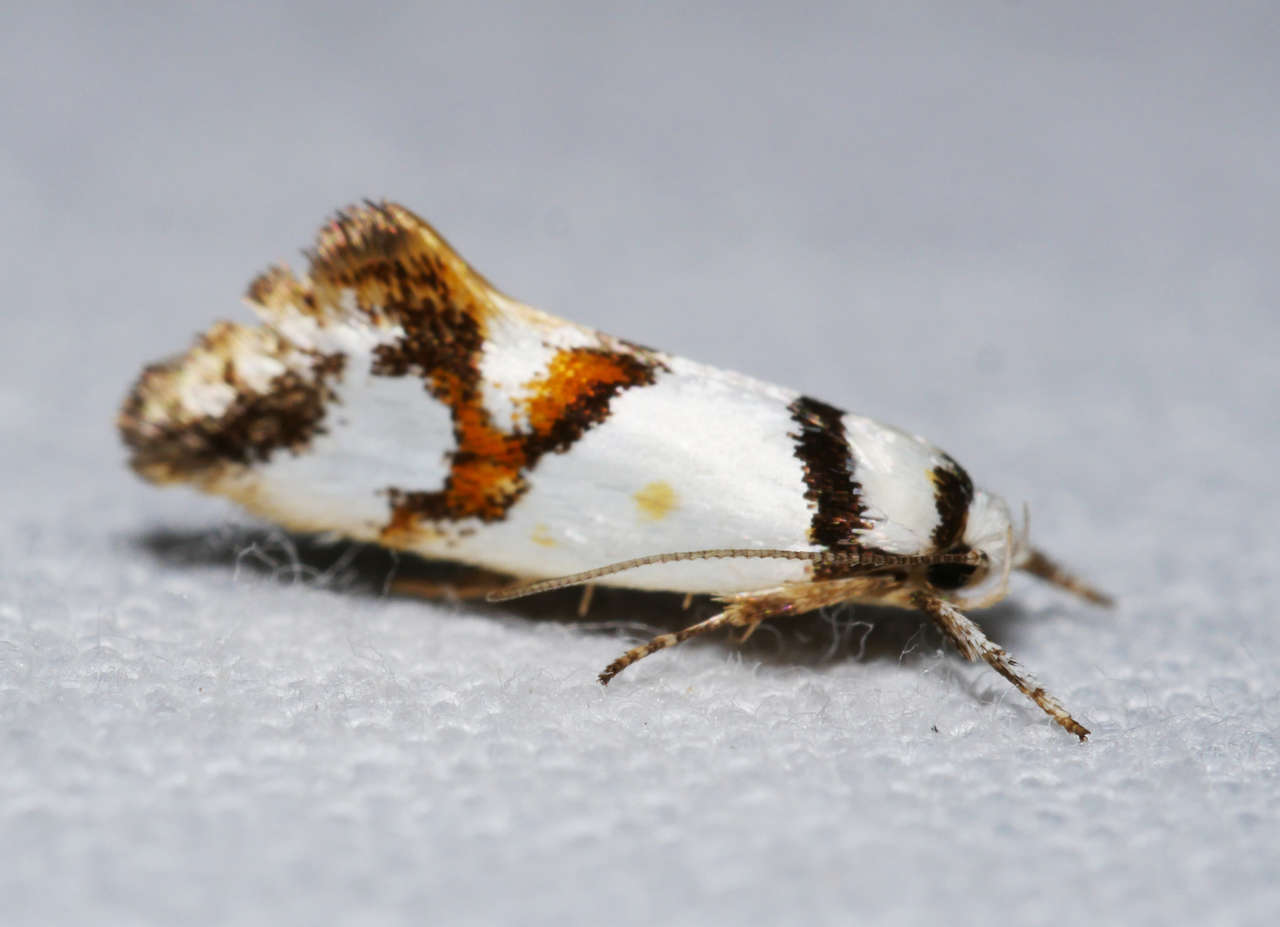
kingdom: Animalia
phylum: Arthropoda
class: Insecta
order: Lepidoptera
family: Oecophoridae
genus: Lepidotarsa
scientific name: Lepidotarsa habrodelta
